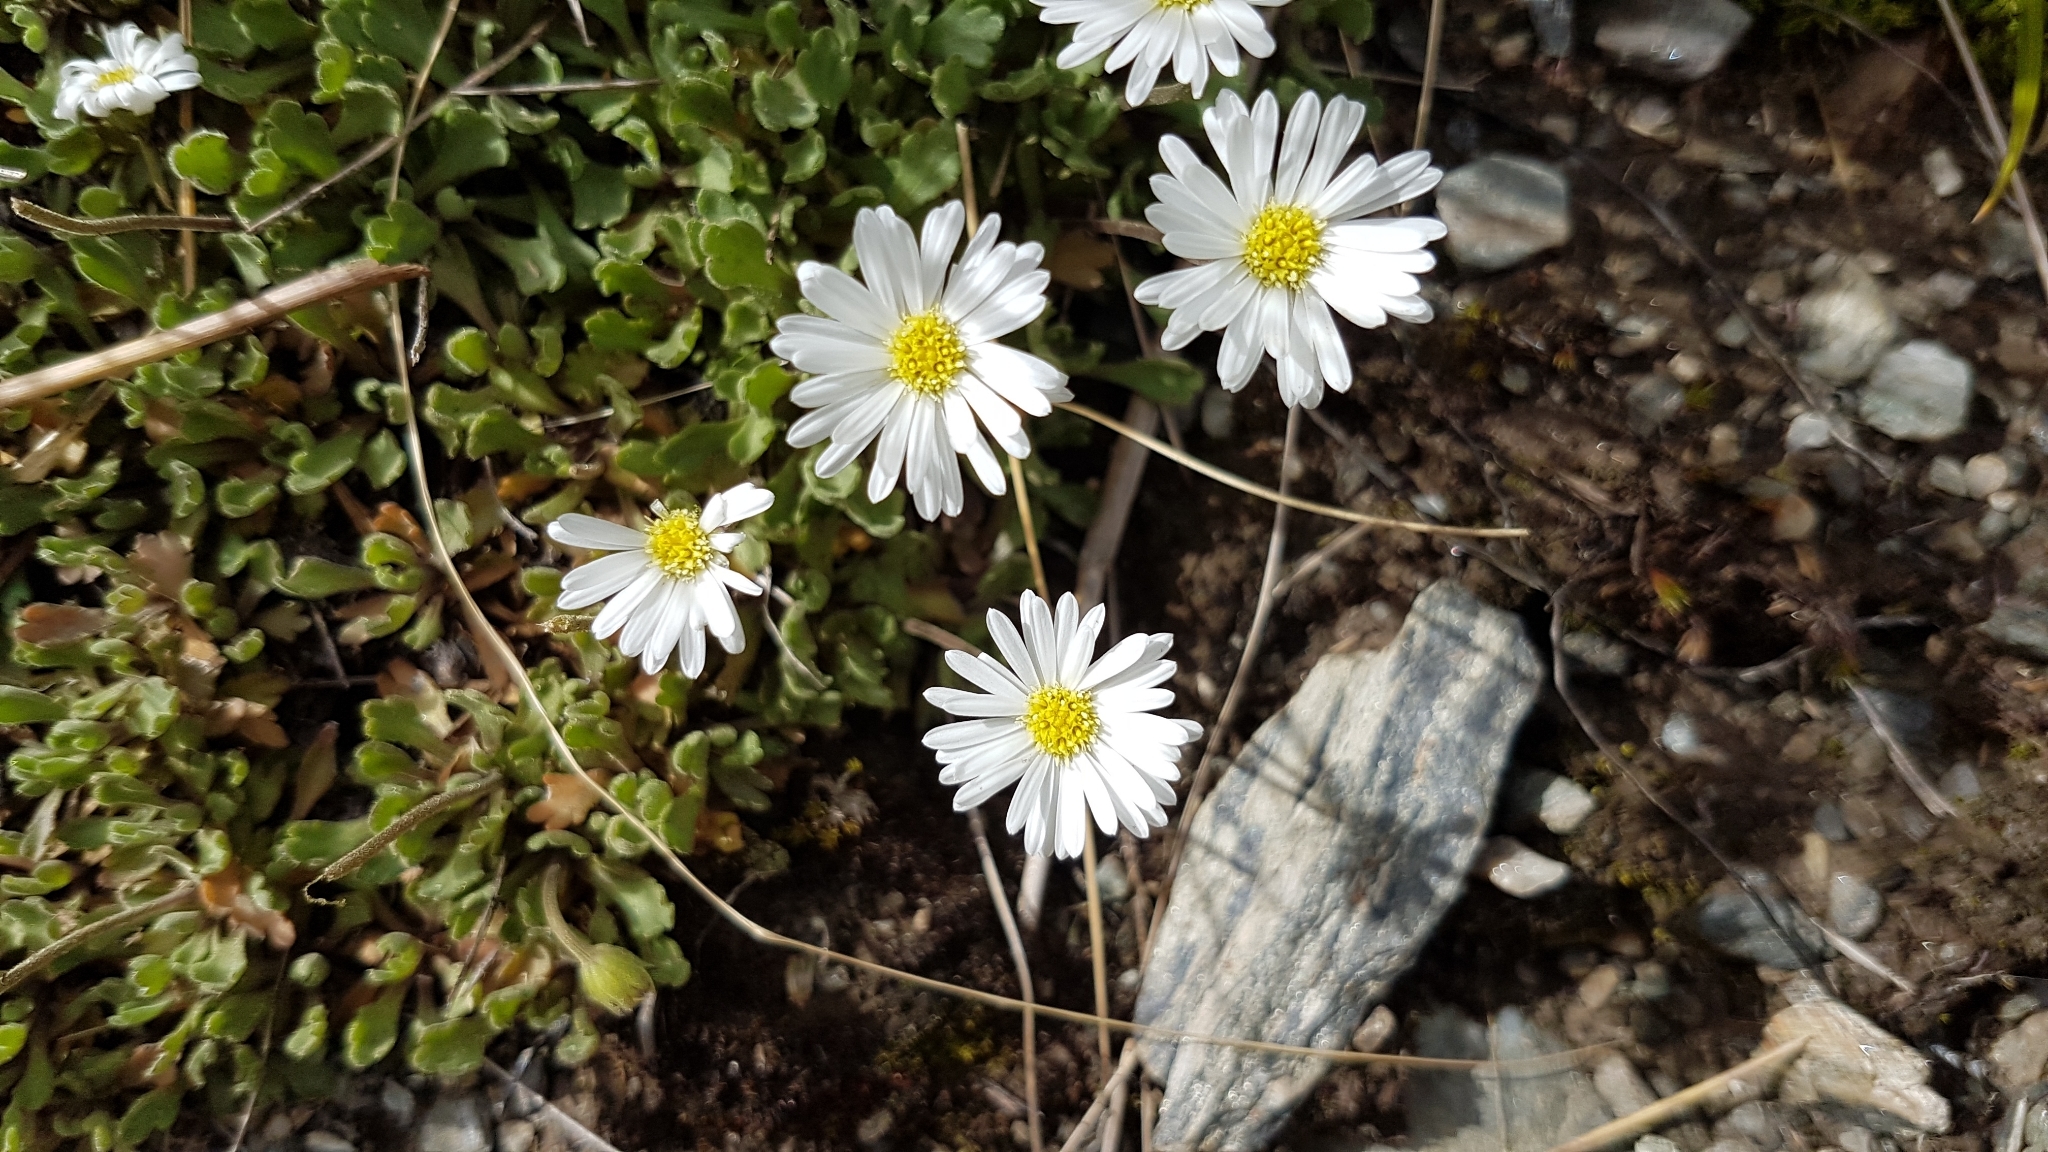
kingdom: Plantae
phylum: Tracheophyta
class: Magnoliopsida
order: Asterales
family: Asteraceae
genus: Brachyscome
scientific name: Brachyscome montana
